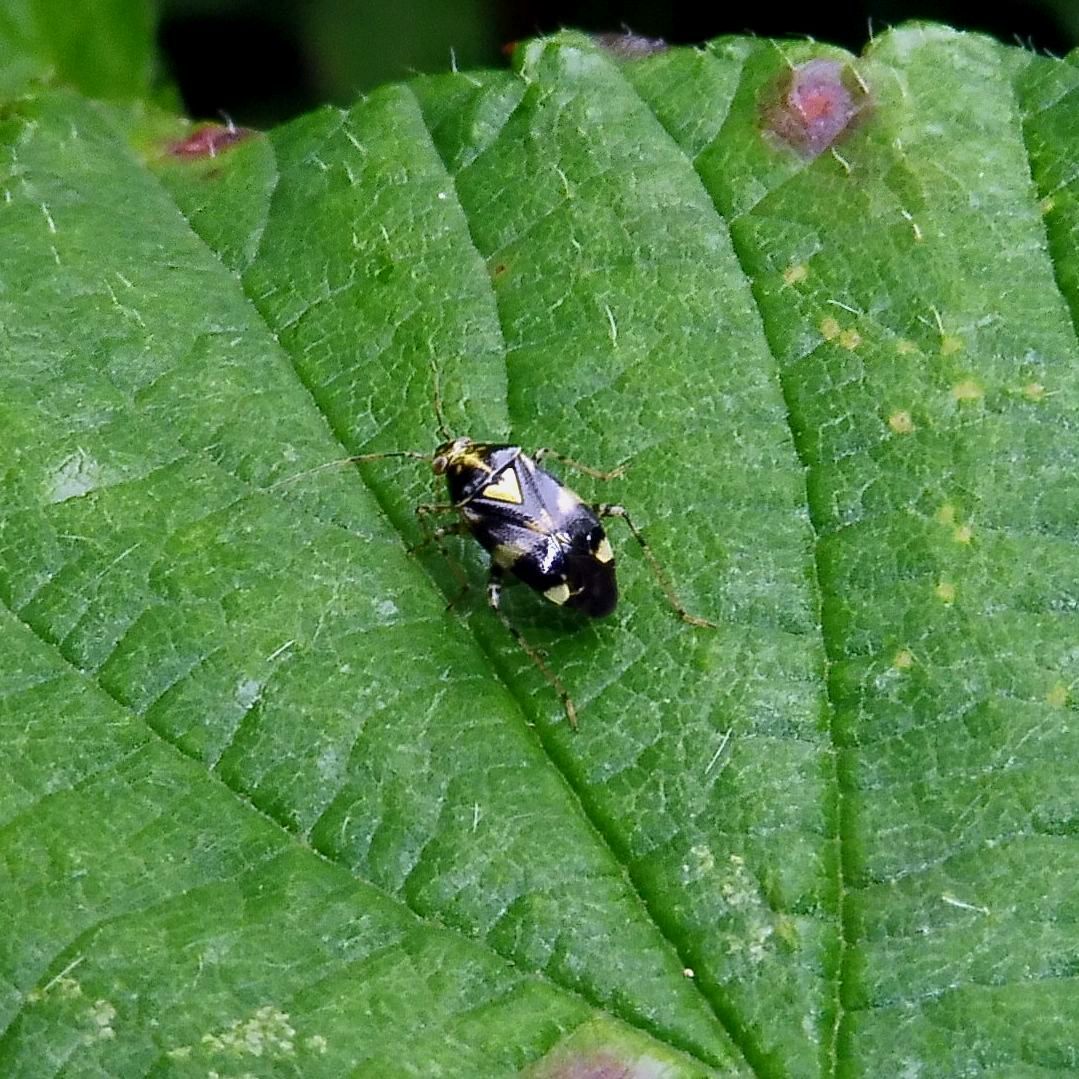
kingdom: Animalia
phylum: Arthropoda
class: Insecta
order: Hemiptera
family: Miridae
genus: Liocoris
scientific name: Liocoris tripustulatus
